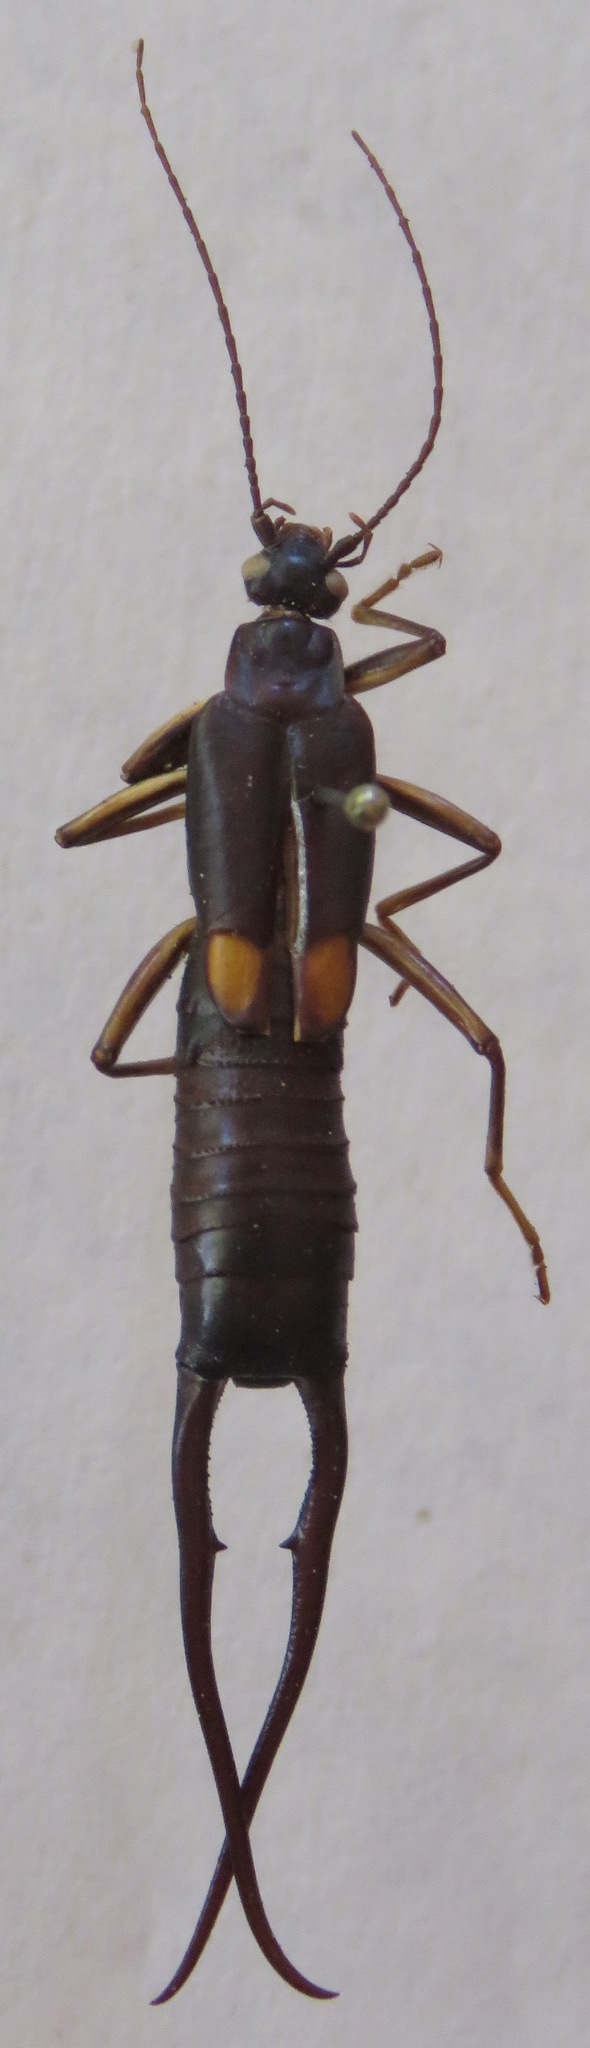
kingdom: Animalia
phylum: Arthropoda
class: Insecta
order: Dermaptera
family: Spongiphoridae
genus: Spongiphora
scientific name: Spongiphora croceipennis
